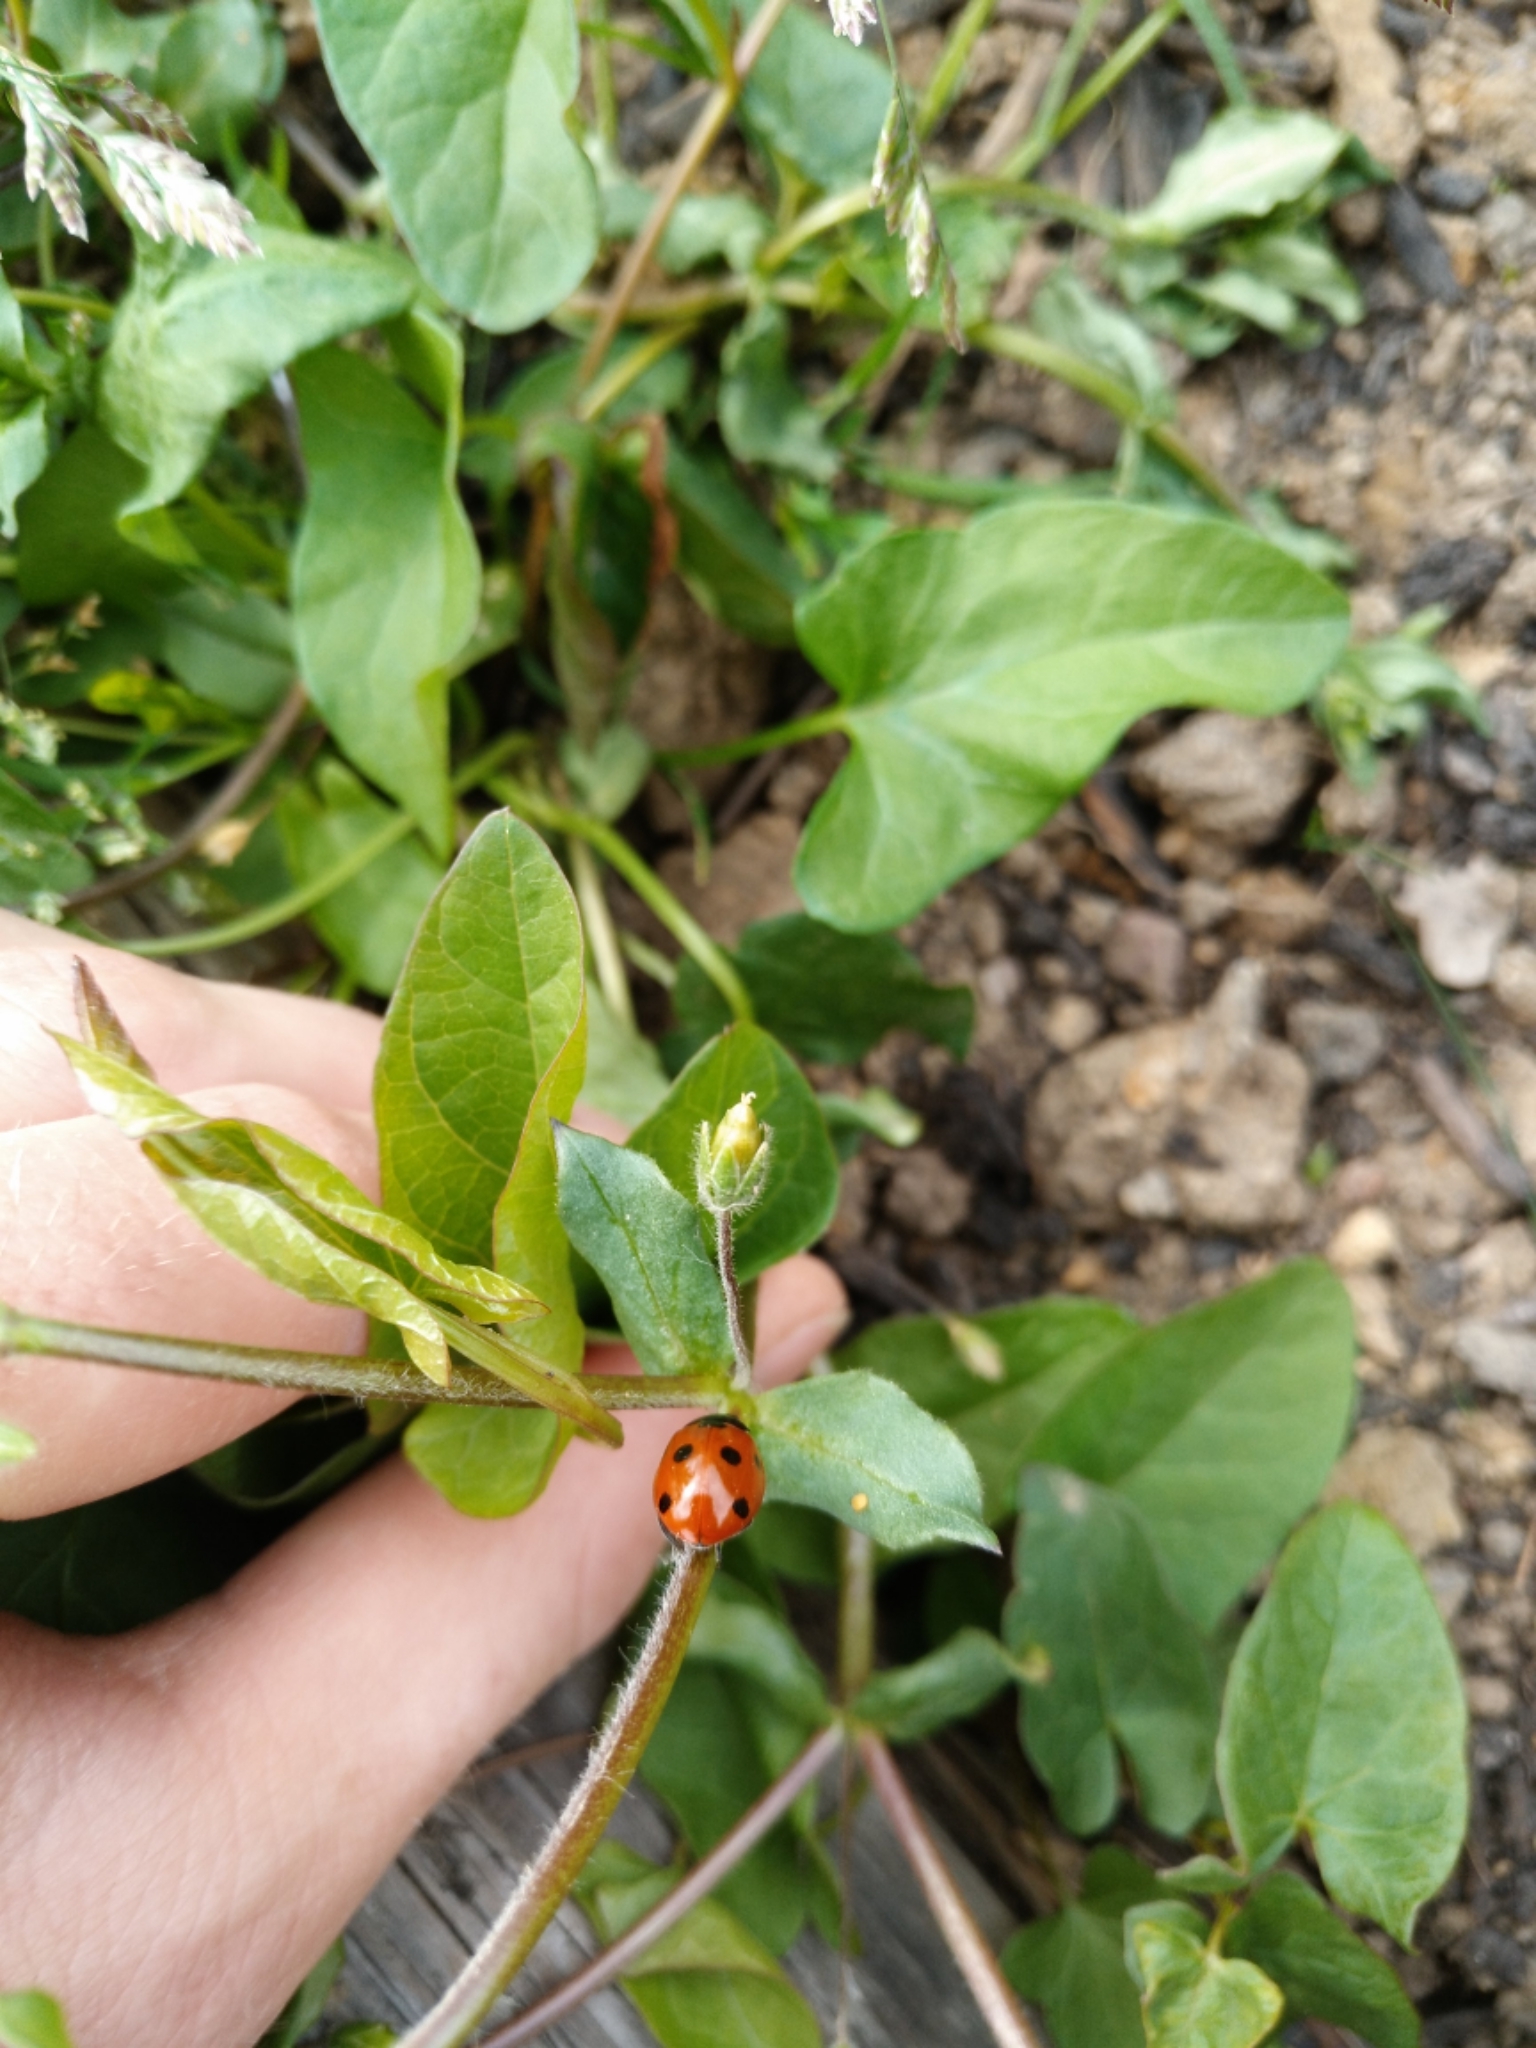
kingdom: Animalia
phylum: Arthropoda
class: Insecta
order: Coleoptera
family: Coccinellidae
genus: Coccinella
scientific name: Coccinella septempunctata
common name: Sevenspotted lady beetle
